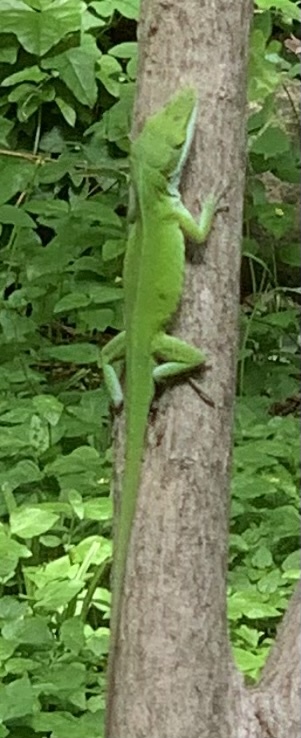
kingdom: Animalia
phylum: Chordata
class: Squamata
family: Dactyloidae
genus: Anolis
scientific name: Anolis carolinensis
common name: Green anole
